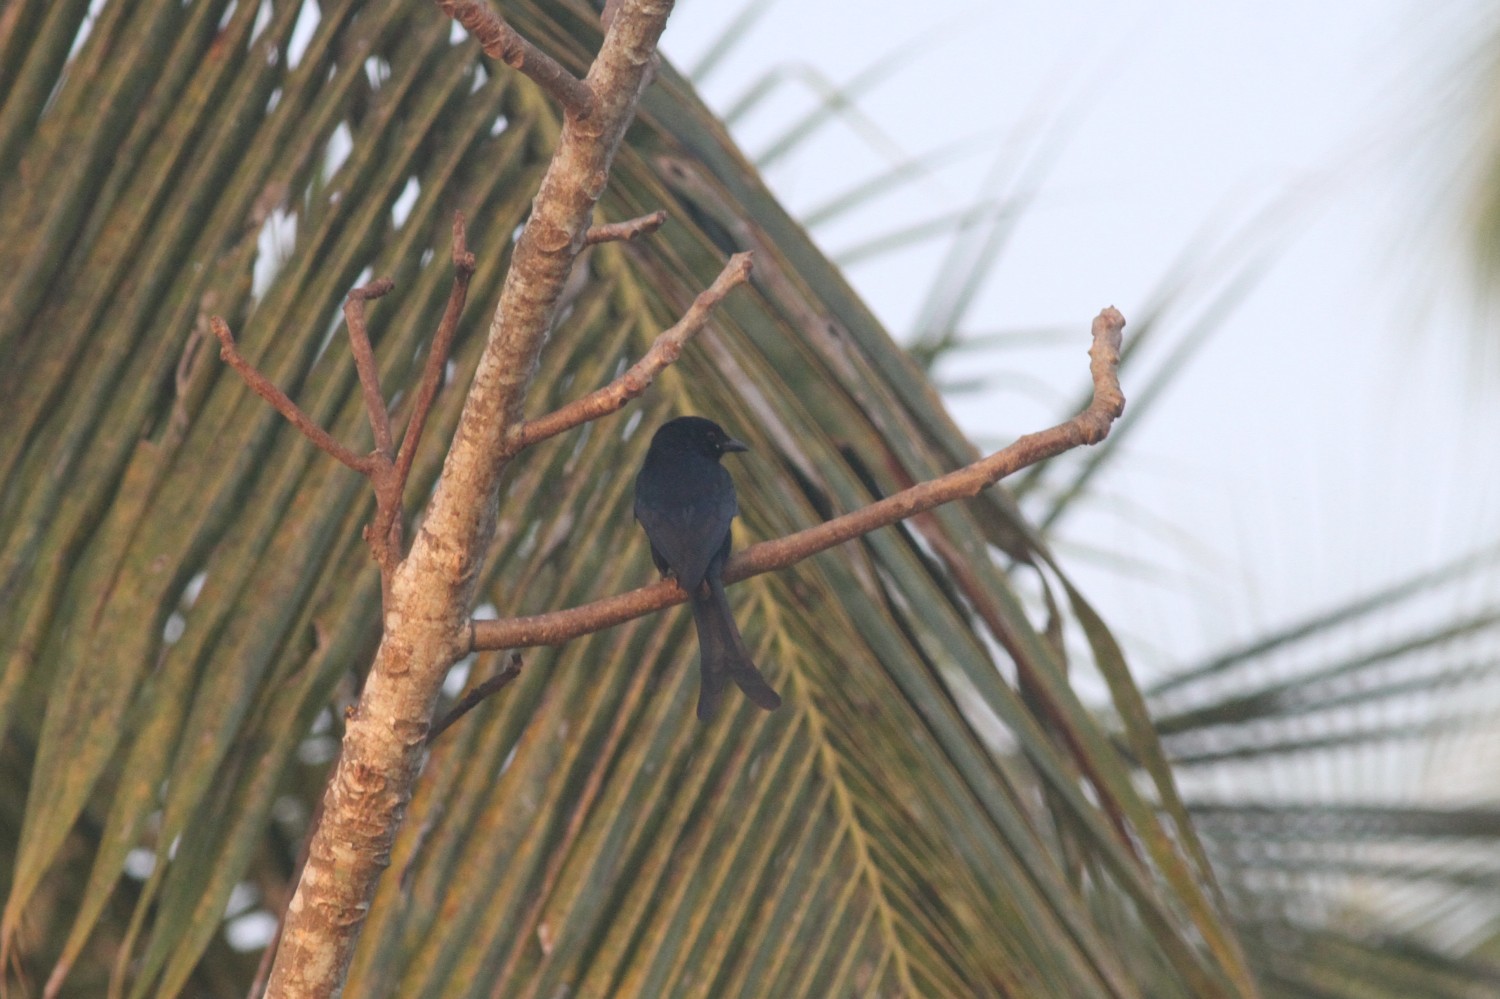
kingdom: Animalia
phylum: Chordata
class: Aves
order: Passeriformes
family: Dicruridae
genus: Dicrurus
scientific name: Dicrurus macrocercus
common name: Black drongo
